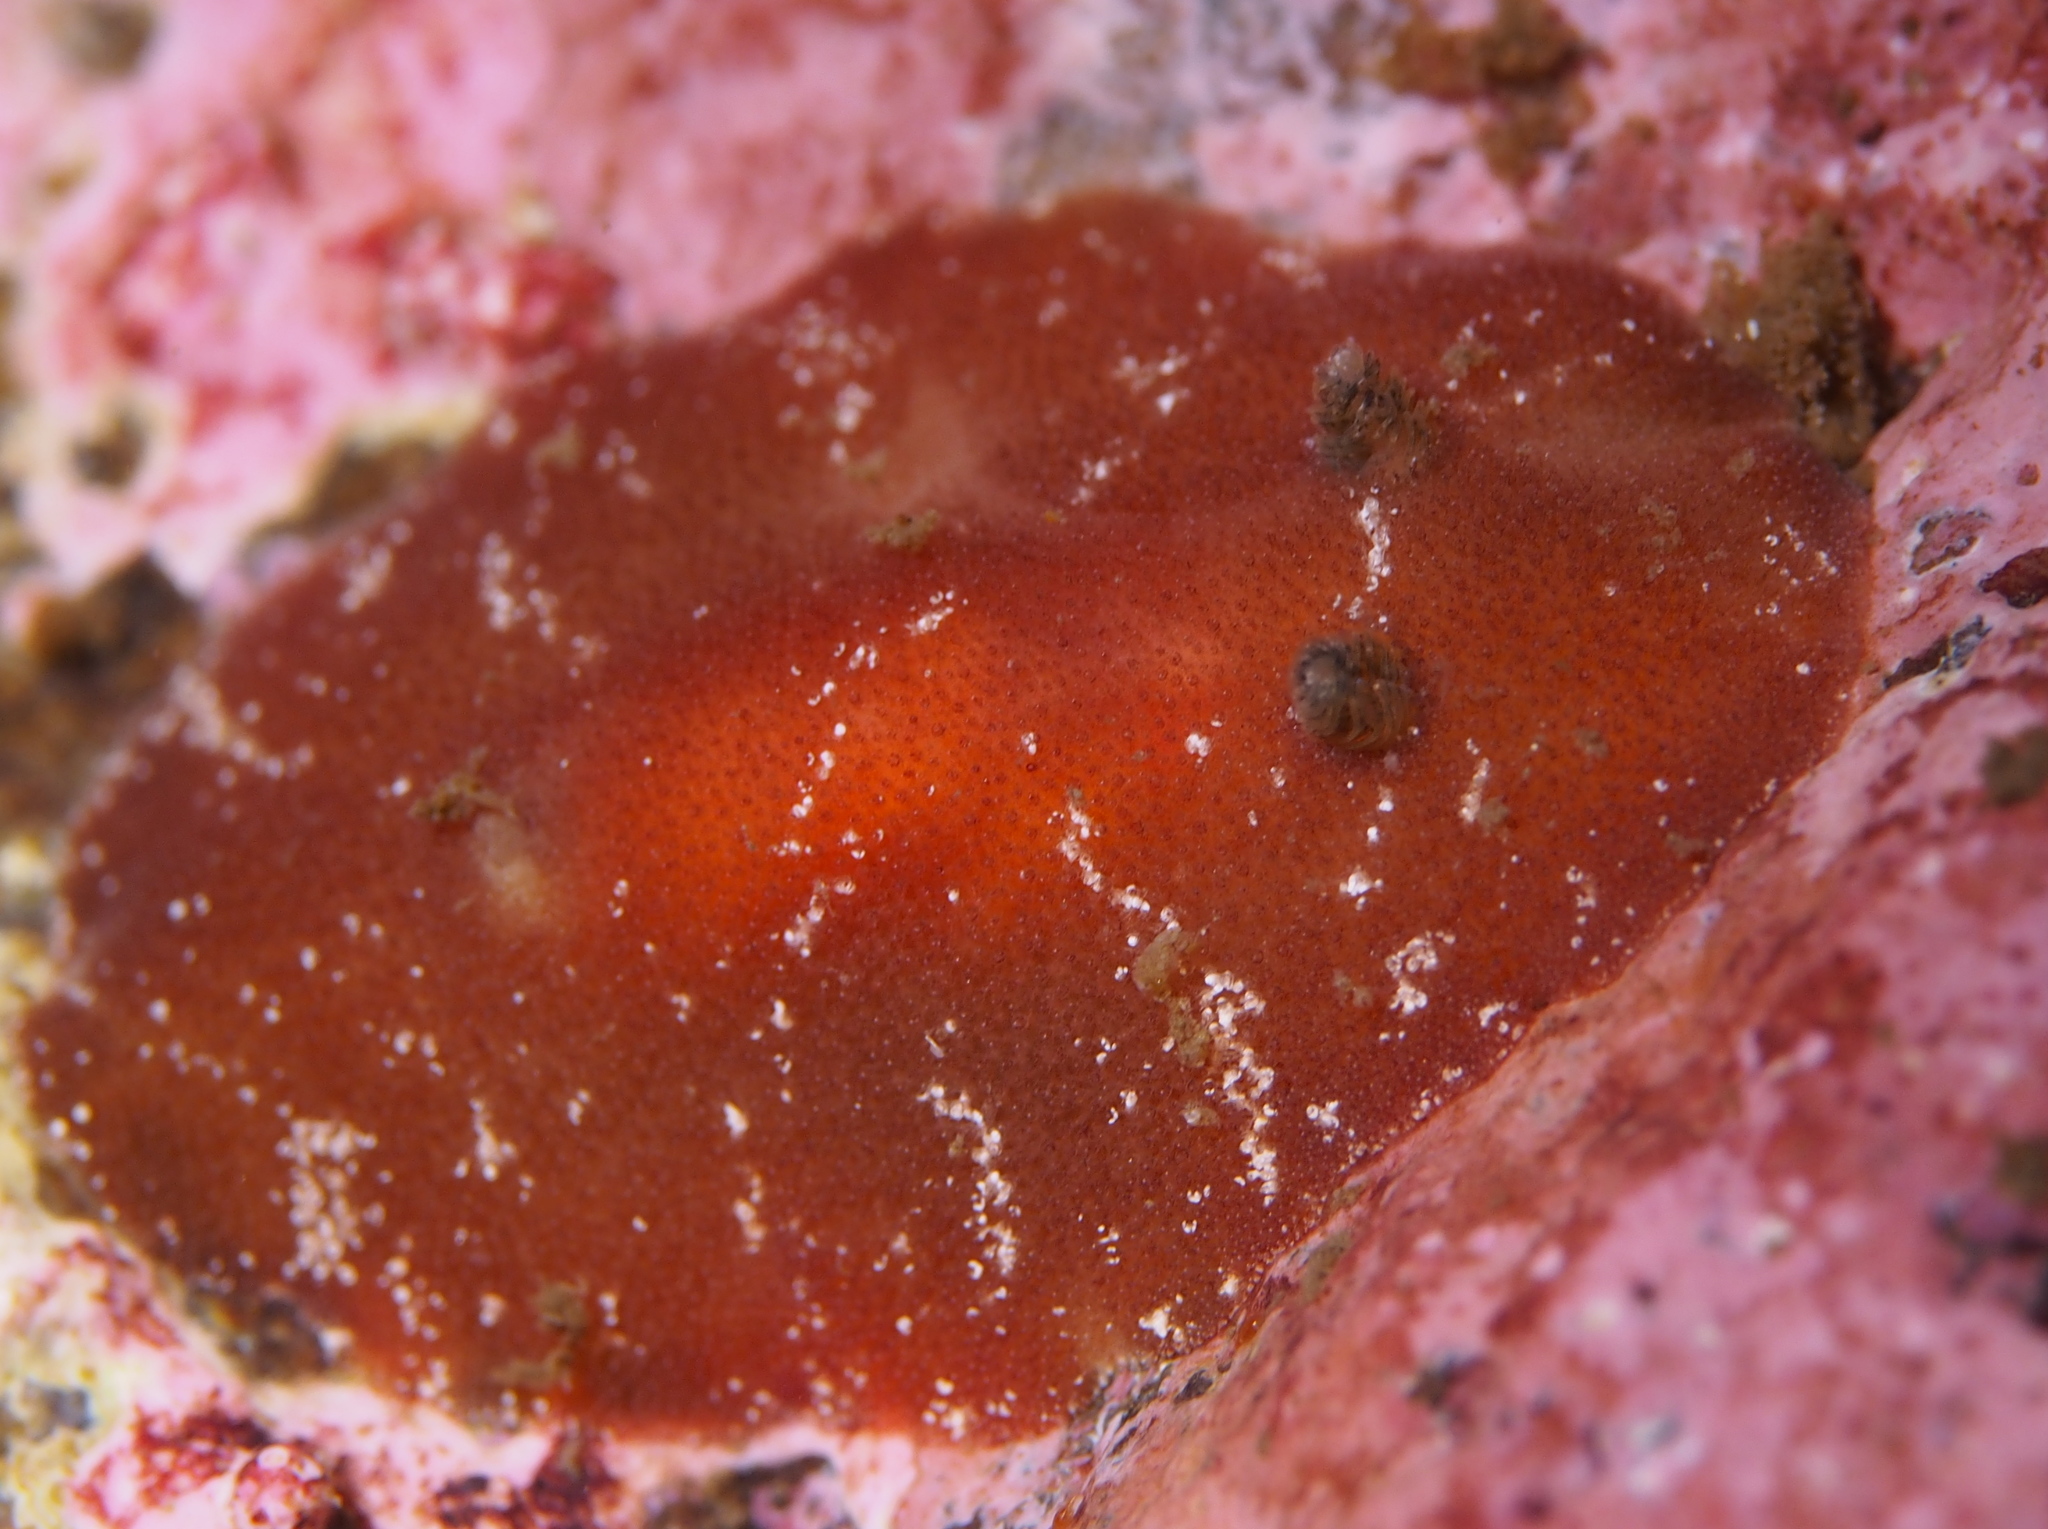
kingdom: Animalia
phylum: Mollusca
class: Gastropoda
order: Nudibranchia
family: Discodorididae
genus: Rostanga
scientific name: Rostanga rubra
